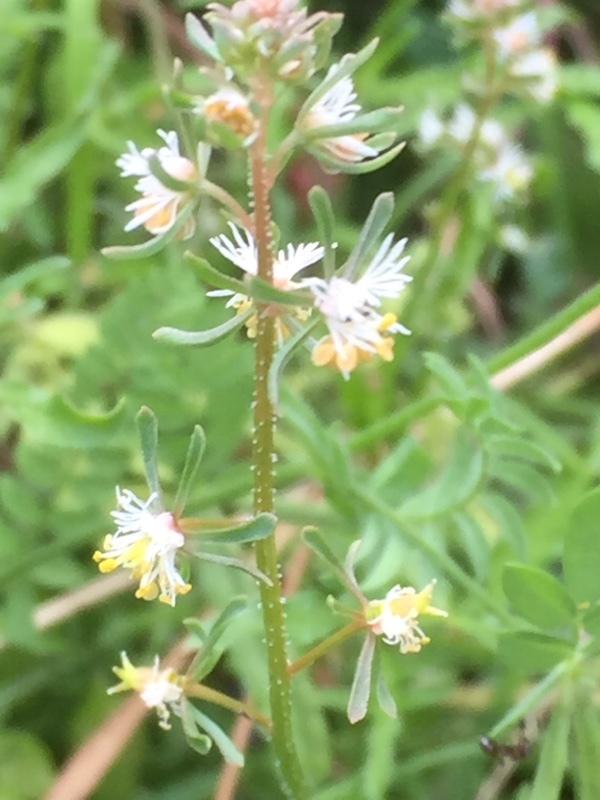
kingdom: Plantae
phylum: Tracheophyta
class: Magnoliopsida
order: Brassicales
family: Resedaceae
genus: Reseda
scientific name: Reseda phyteuma
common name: Corn mignonette
